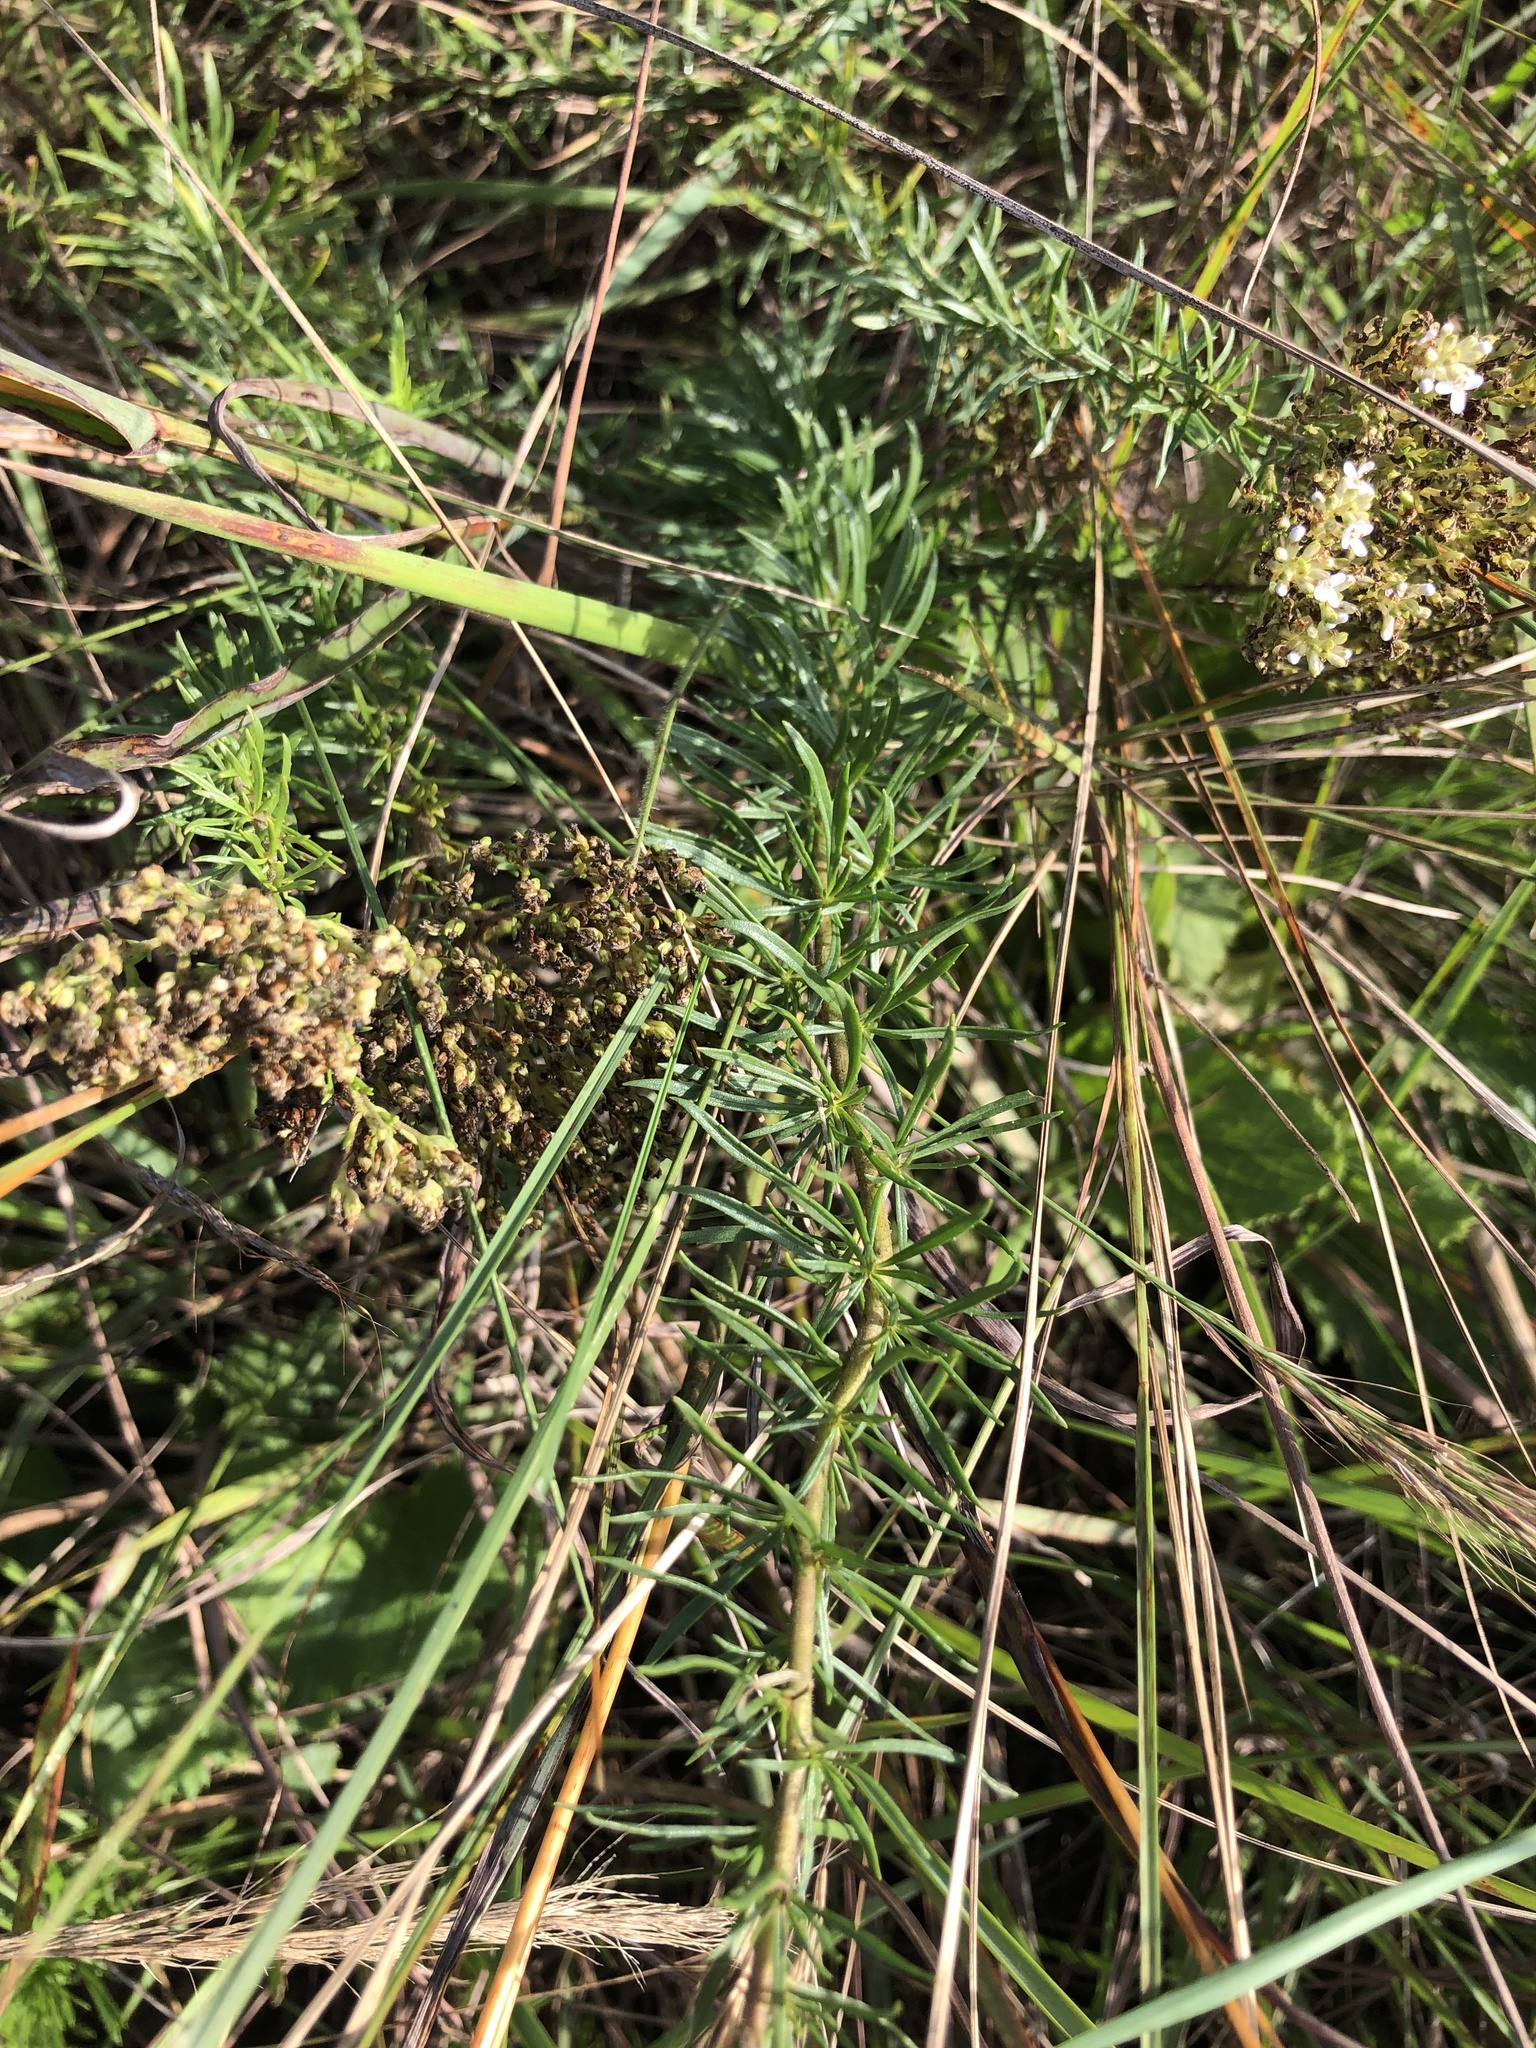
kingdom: Plantae
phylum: Tracheophyta
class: Magnoliopsida
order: Lamiales
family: Scrophulariaceae
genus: Tetraselago
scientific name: Tetraselago natalensis
